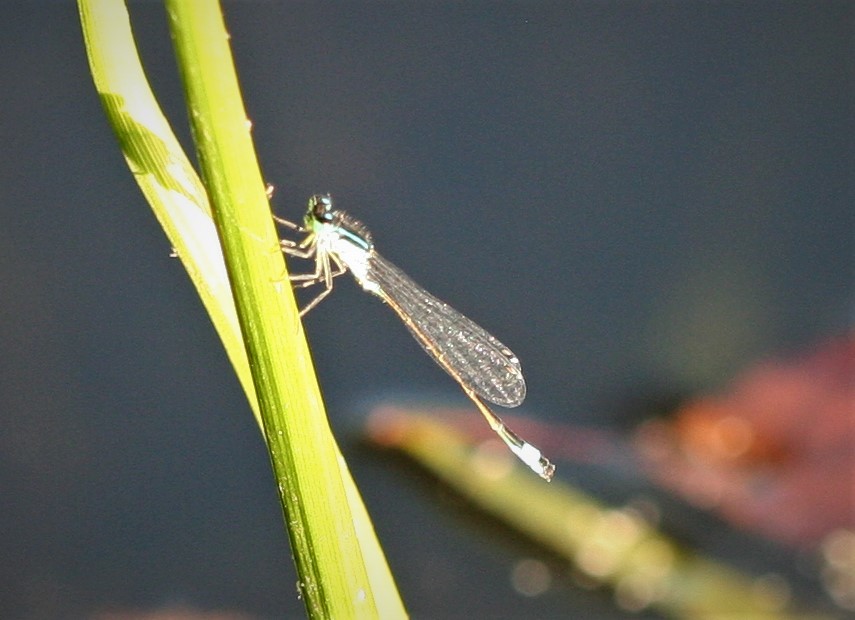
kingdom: Animalia
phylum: Arthropoda
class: Insecta
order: Odonata
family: Coenagrionidae
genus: Ischnura
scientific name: Ischnura elegans
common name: Blue-tailed damselfly
